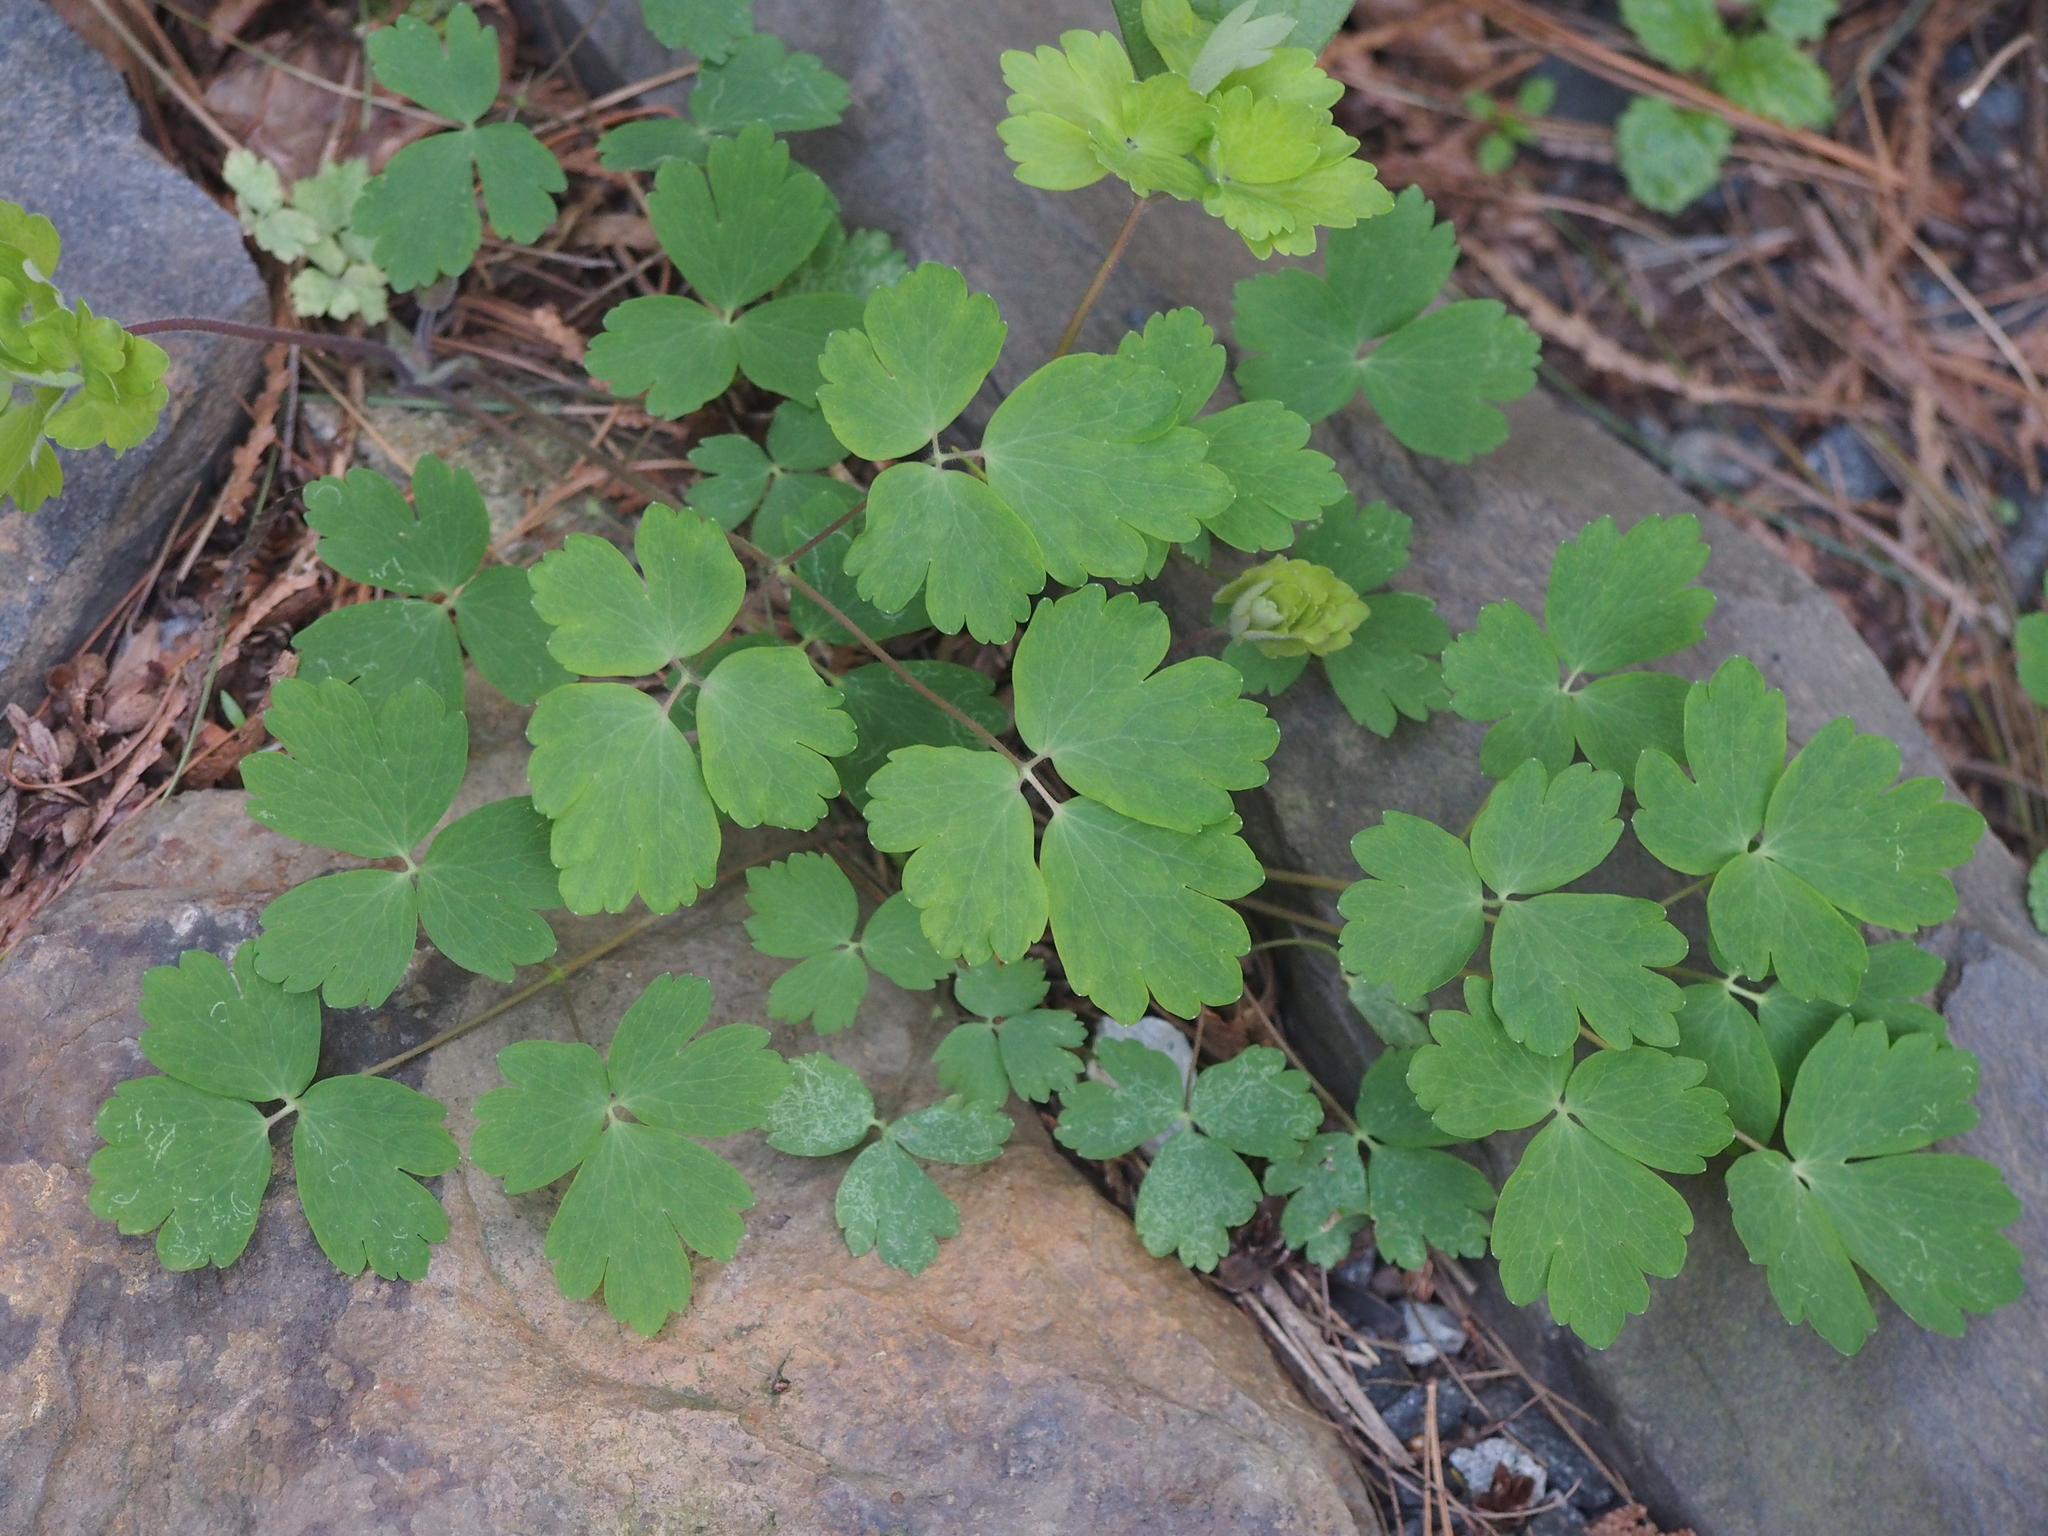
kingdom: Plantae
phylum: Tracheophyta
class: Magnoliopsida
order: Ranunculales
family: Ranunculaceae
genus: Aquilegia
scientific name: Aquilegia canadensis
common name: American columbine
